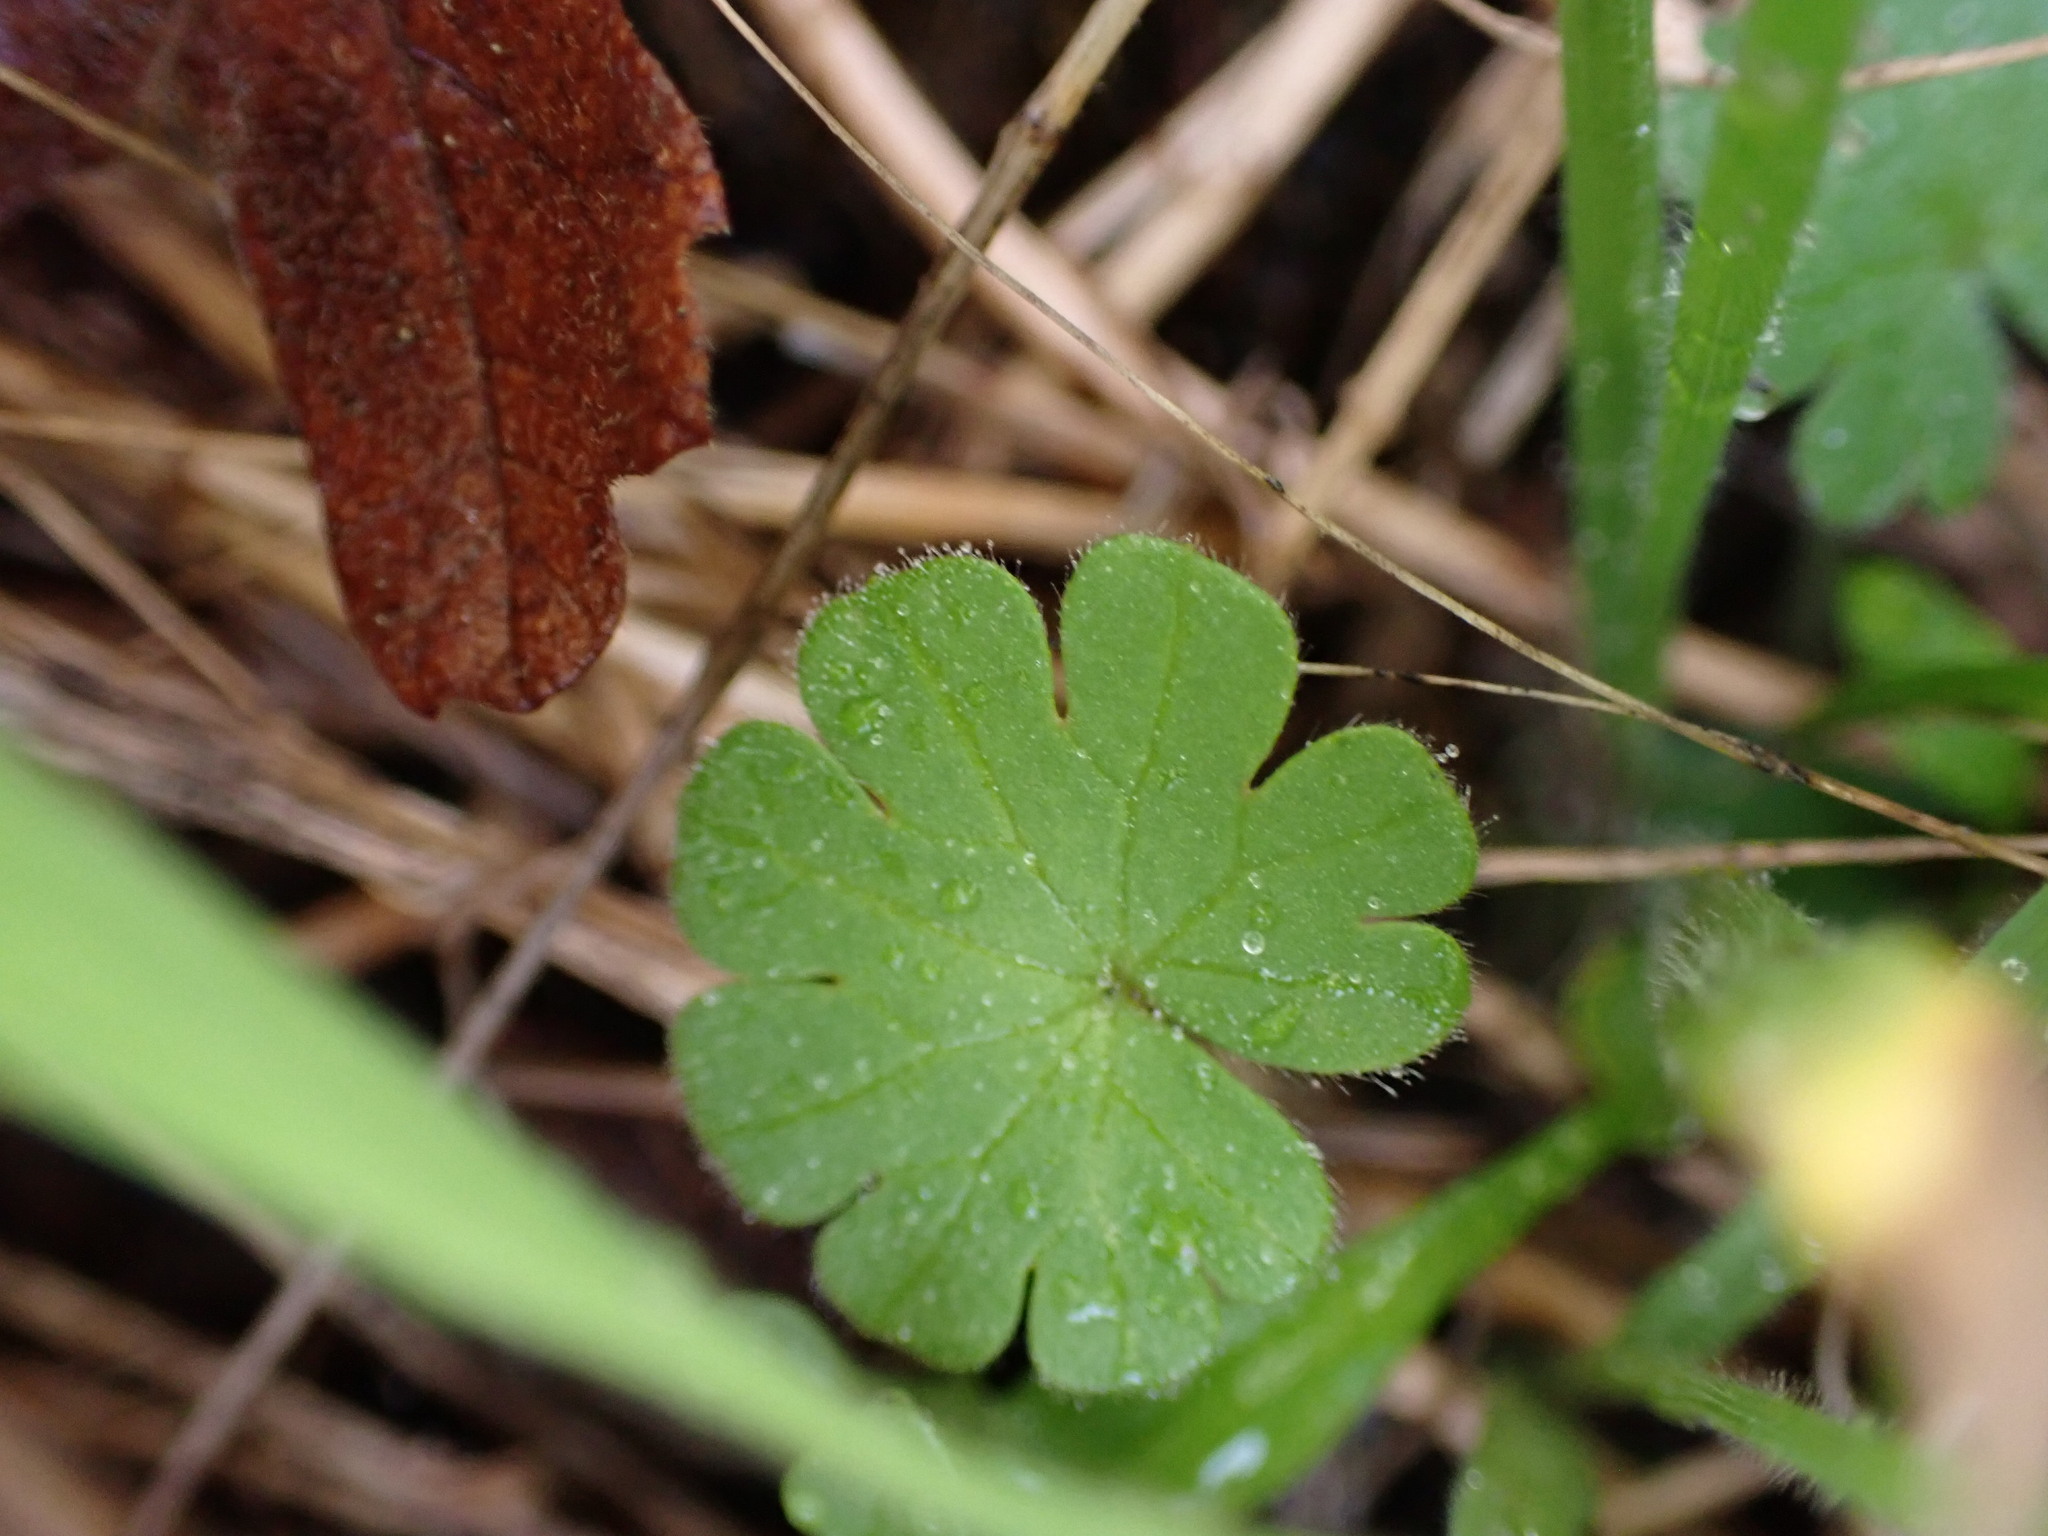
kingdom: Plantae
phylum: Tracheophyta
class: Magnoliopsida
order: Geraniales
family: Geraniaceae
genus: Geranium
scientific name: Geranium molle
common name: Dove's-foot crane's-bill
